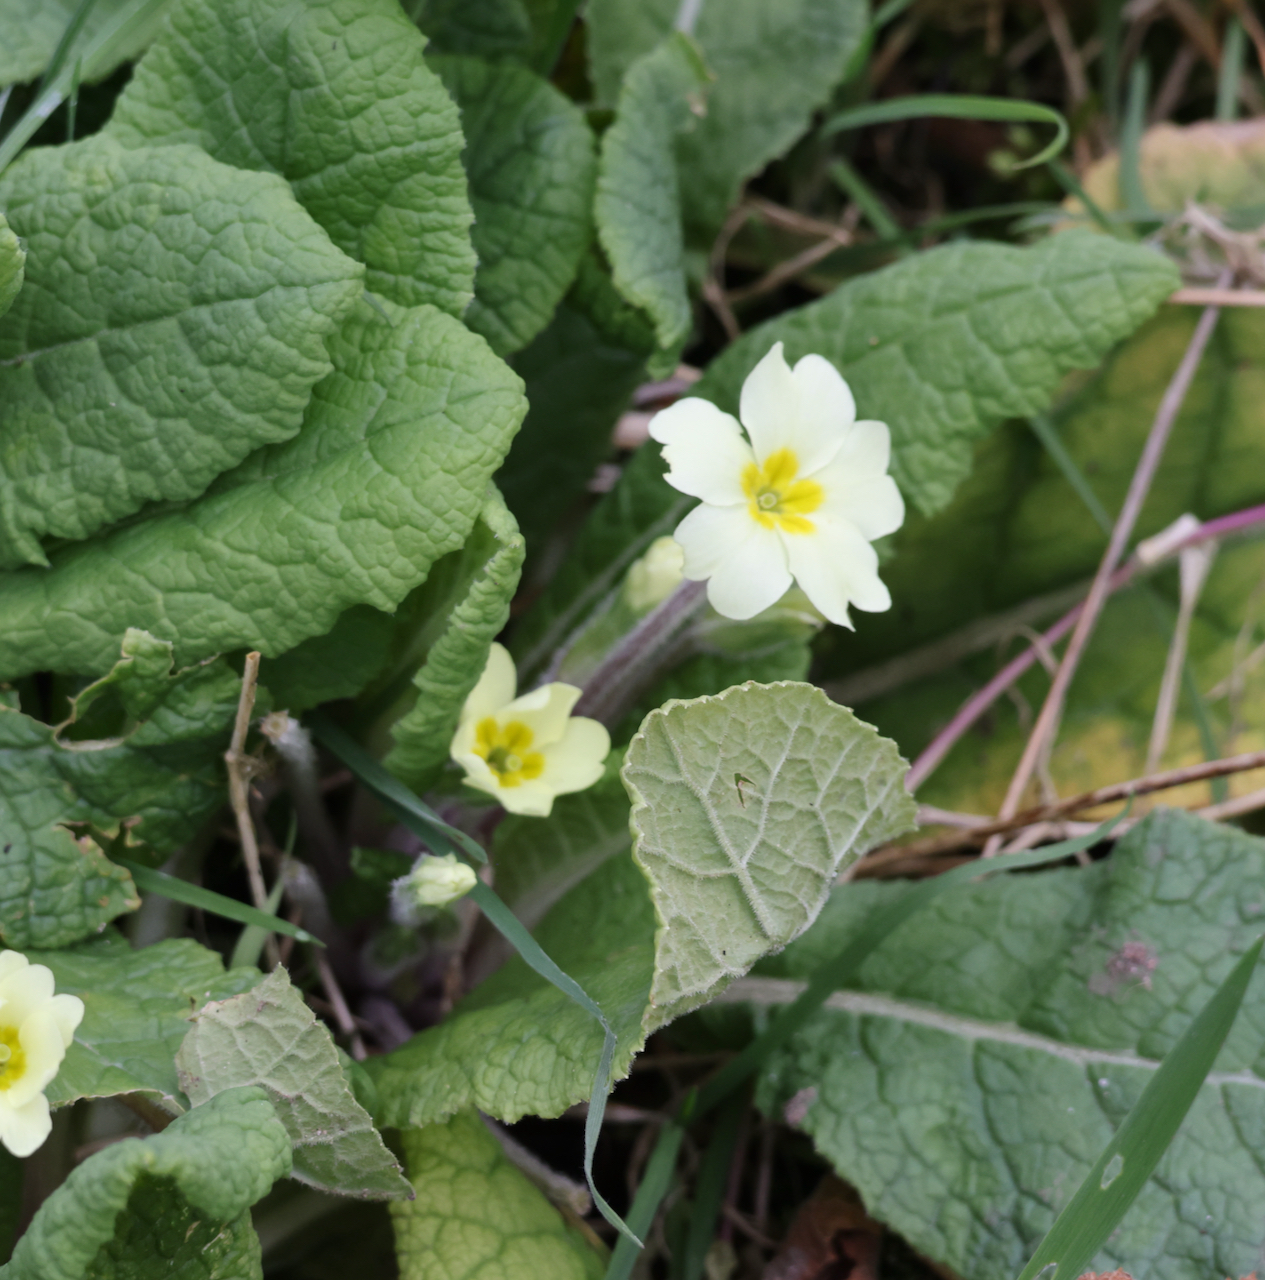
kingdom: Plantae
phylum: Tracheophyta
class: Magnoliopsida
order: Ericales
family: Primulaceae
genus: Primula
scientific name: Primula vulgaris
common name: Primrose
